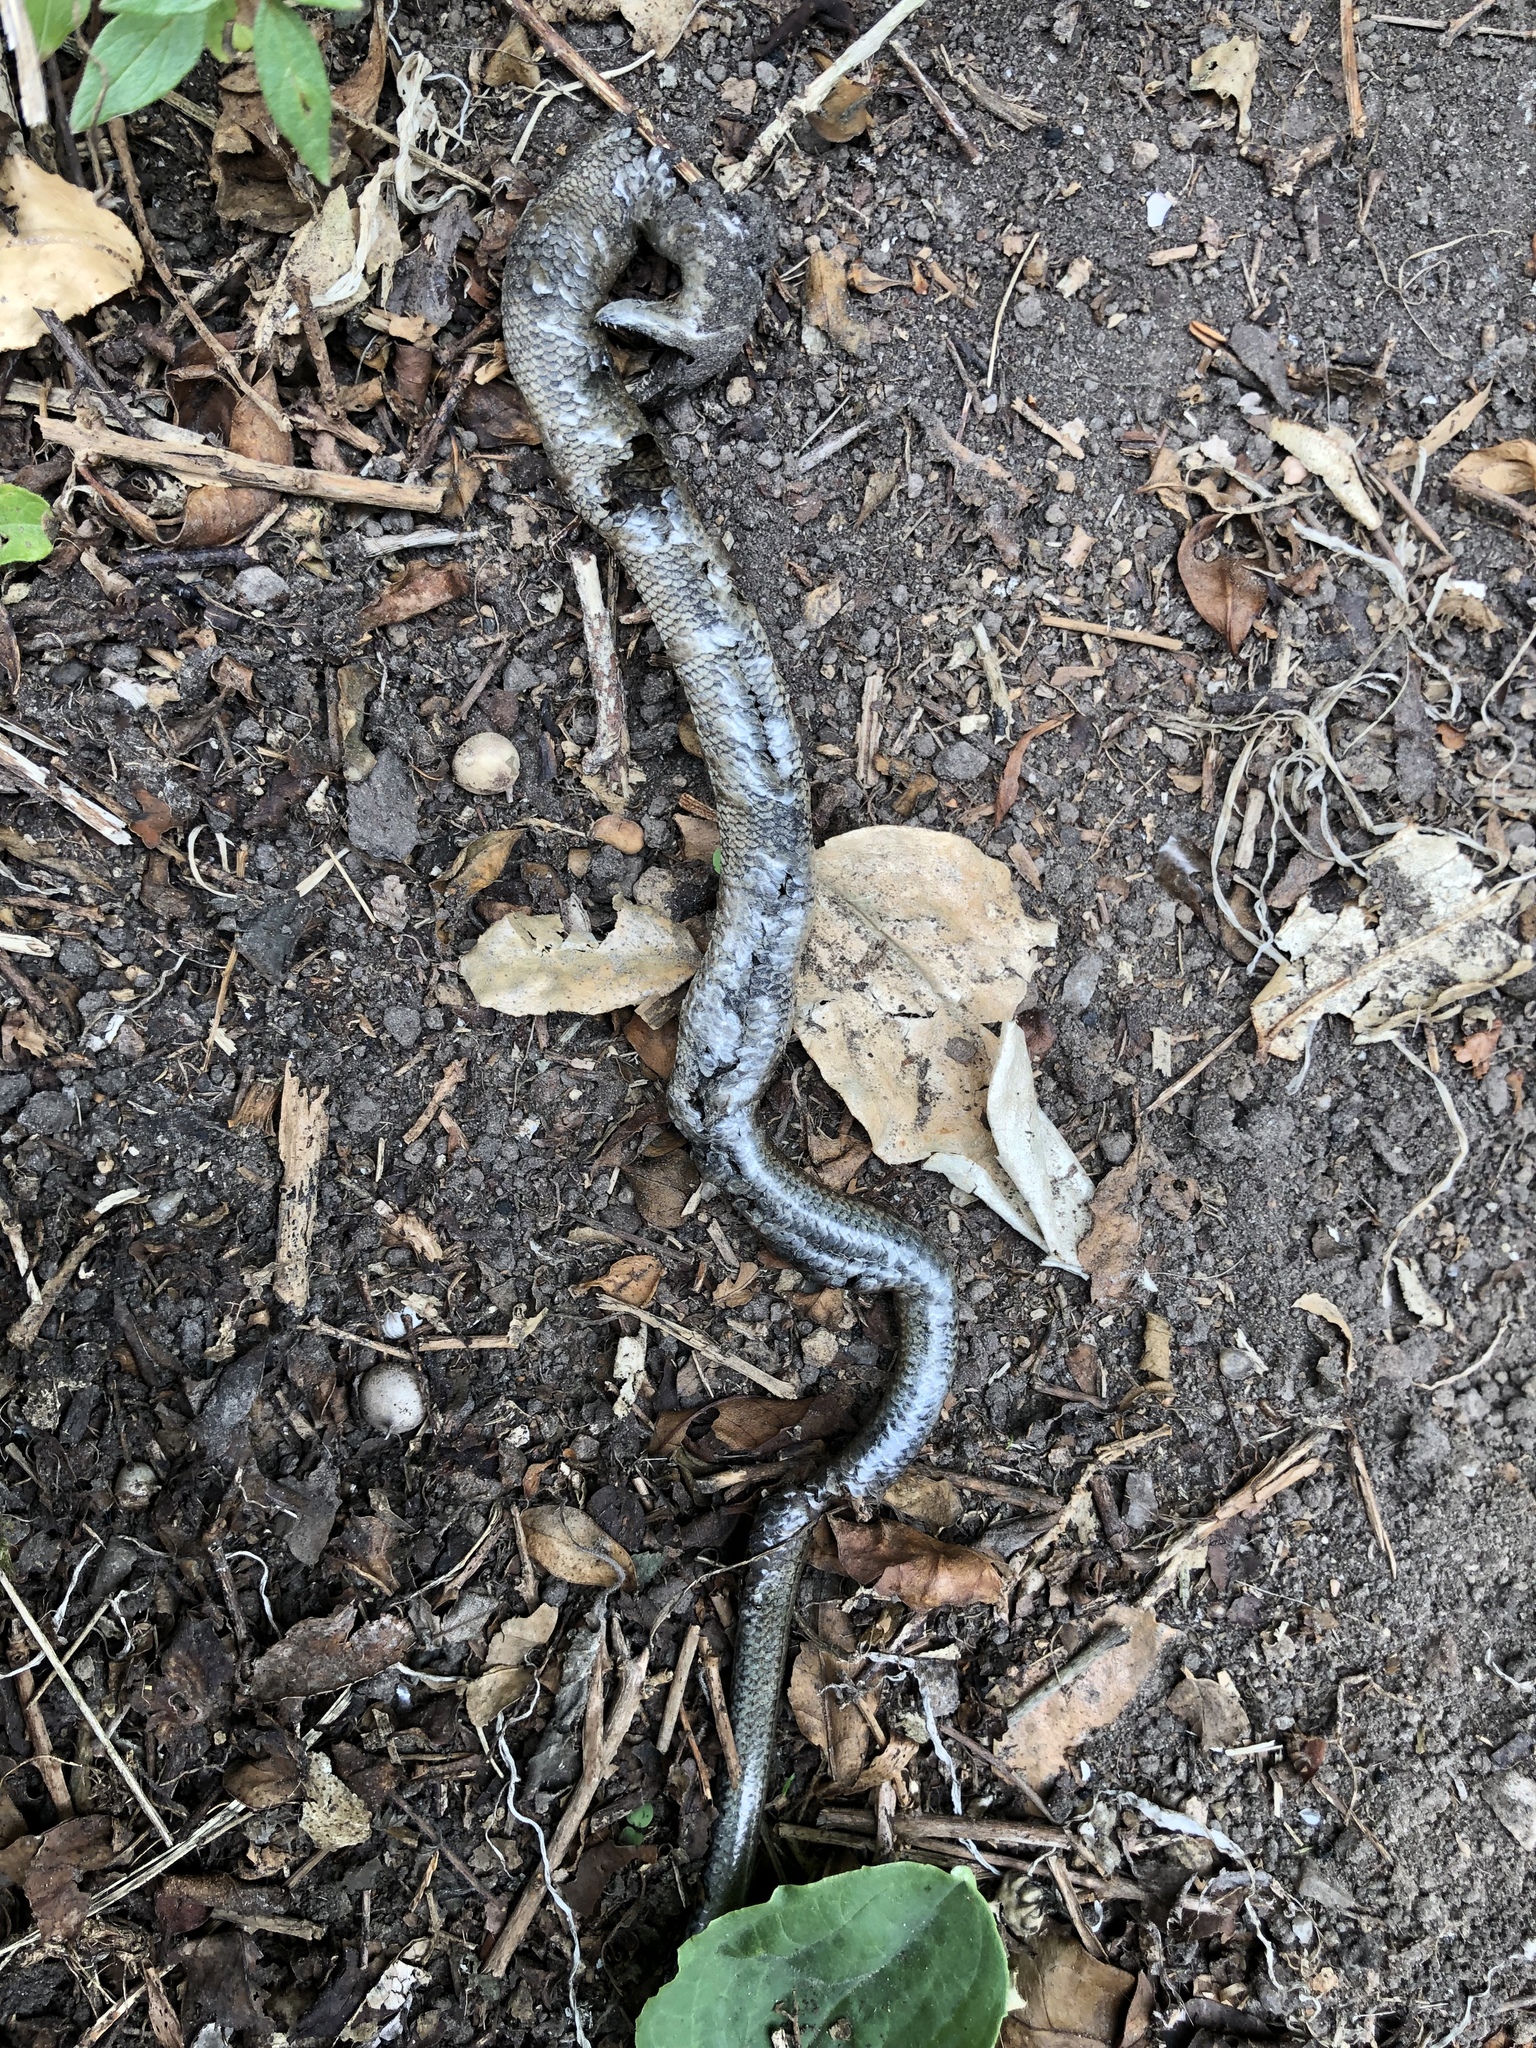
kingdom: Animalia
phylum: Chordata
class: Squamata
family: Anguidae
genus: Anguis
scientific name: Anguis fragilis
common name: Slow worm
